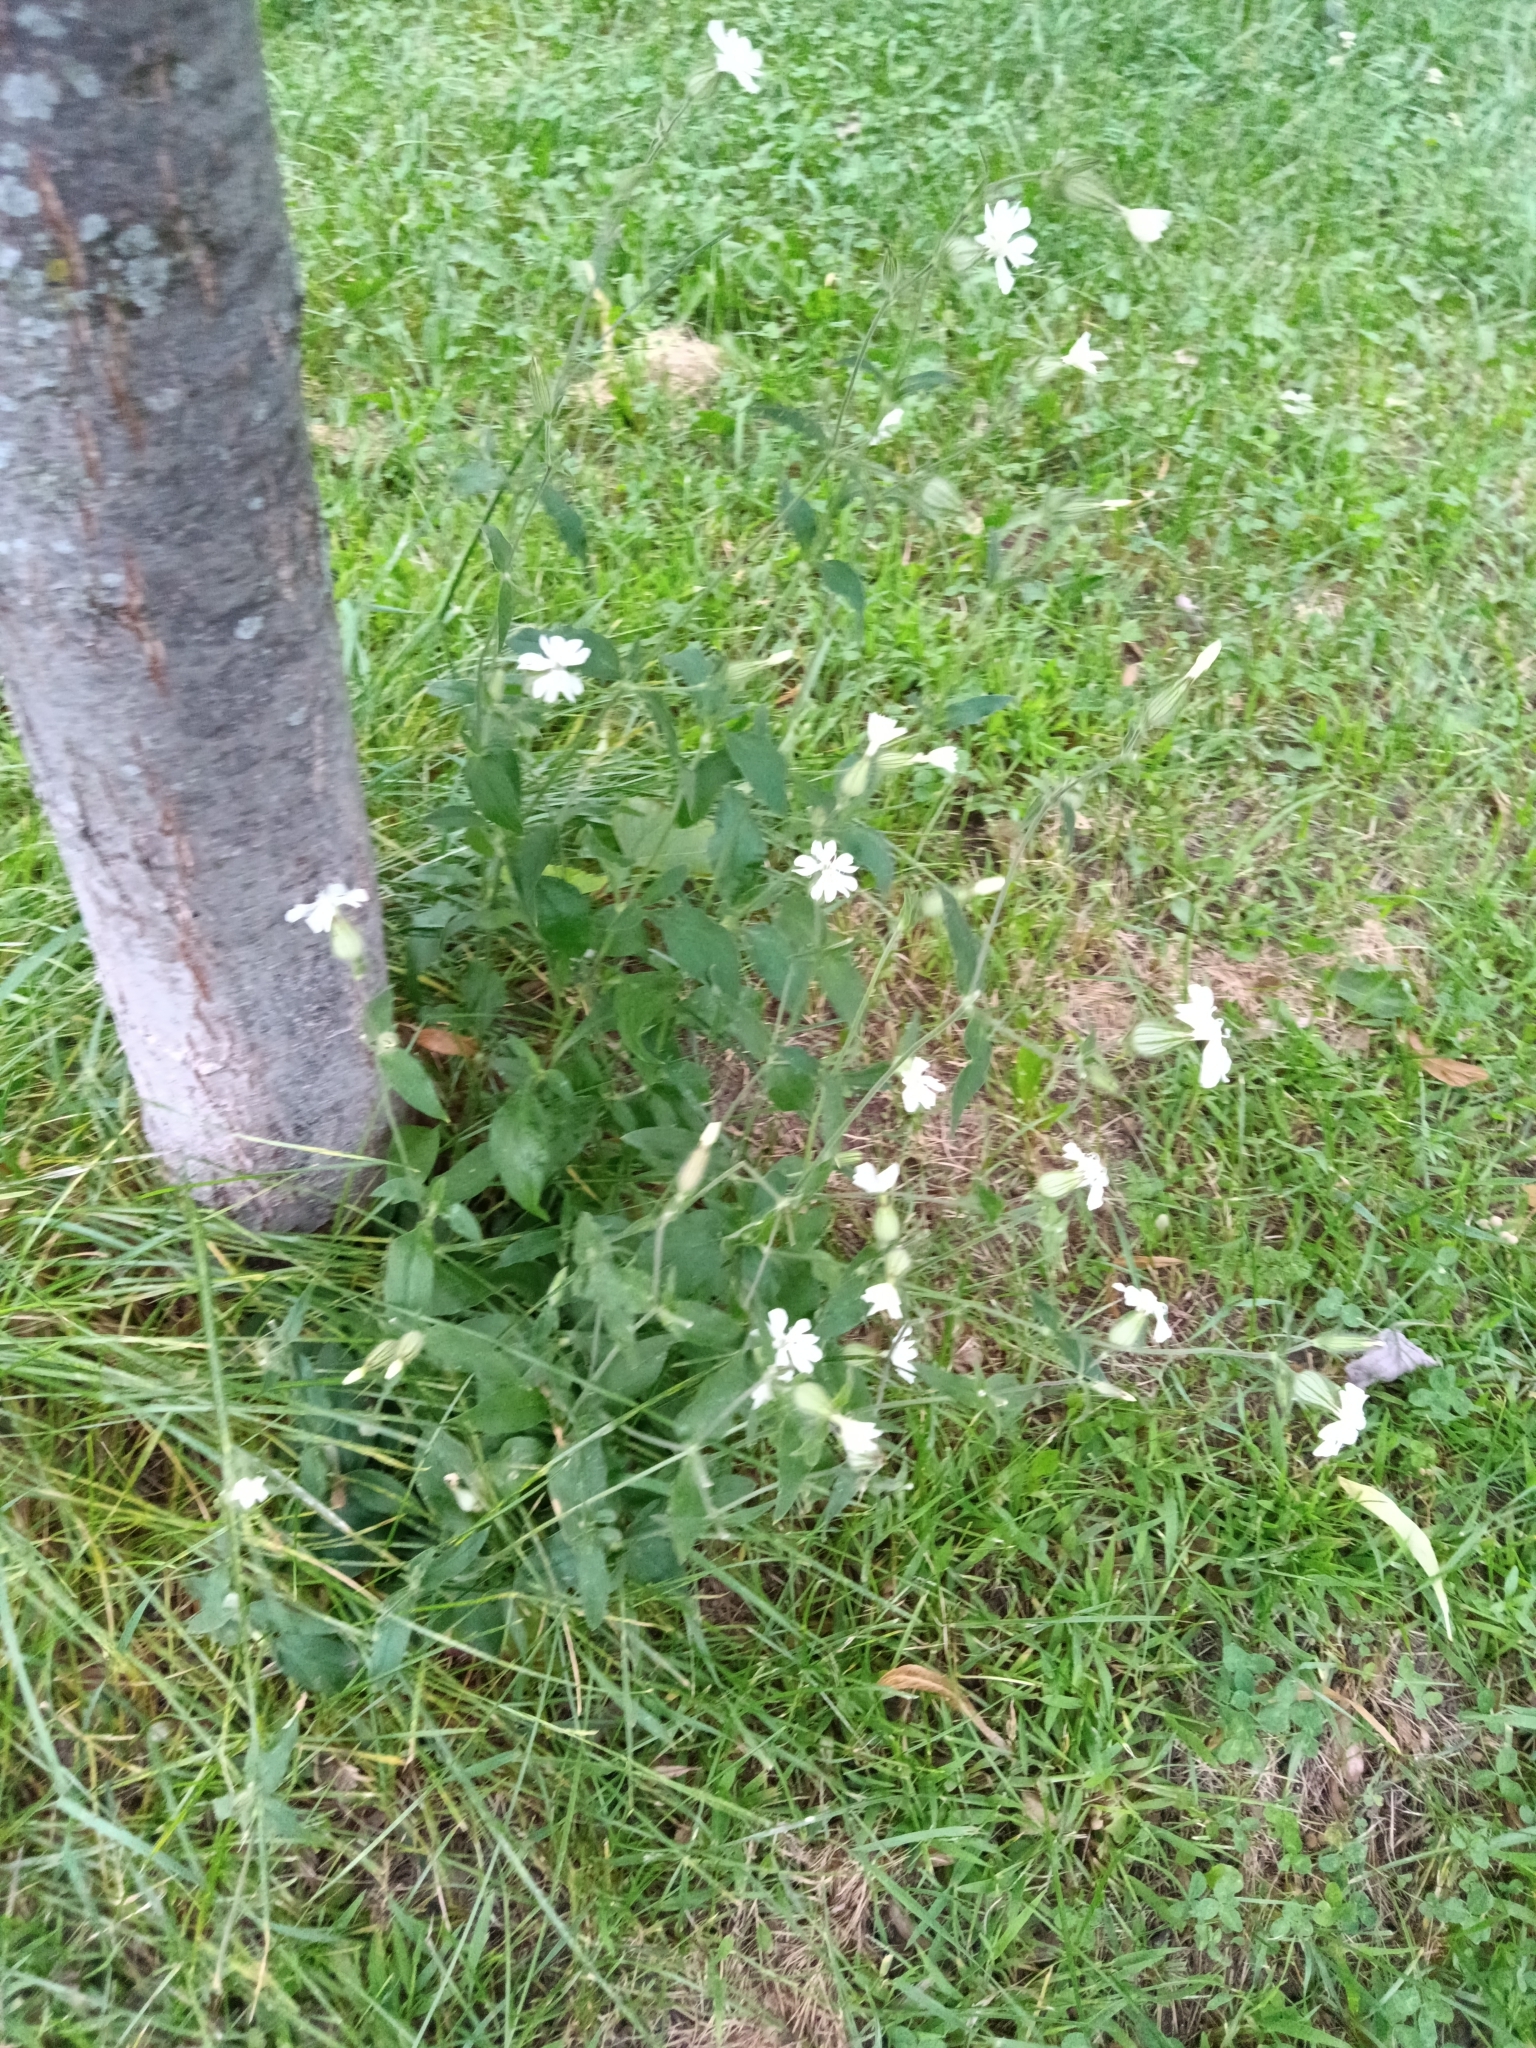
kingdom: Plantae
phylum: Tracheophyta
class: Magnoliopsida
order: Caryophyllales
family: Caryophyllaceae
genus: Silene
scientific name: Silene latifolia
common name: White campion
